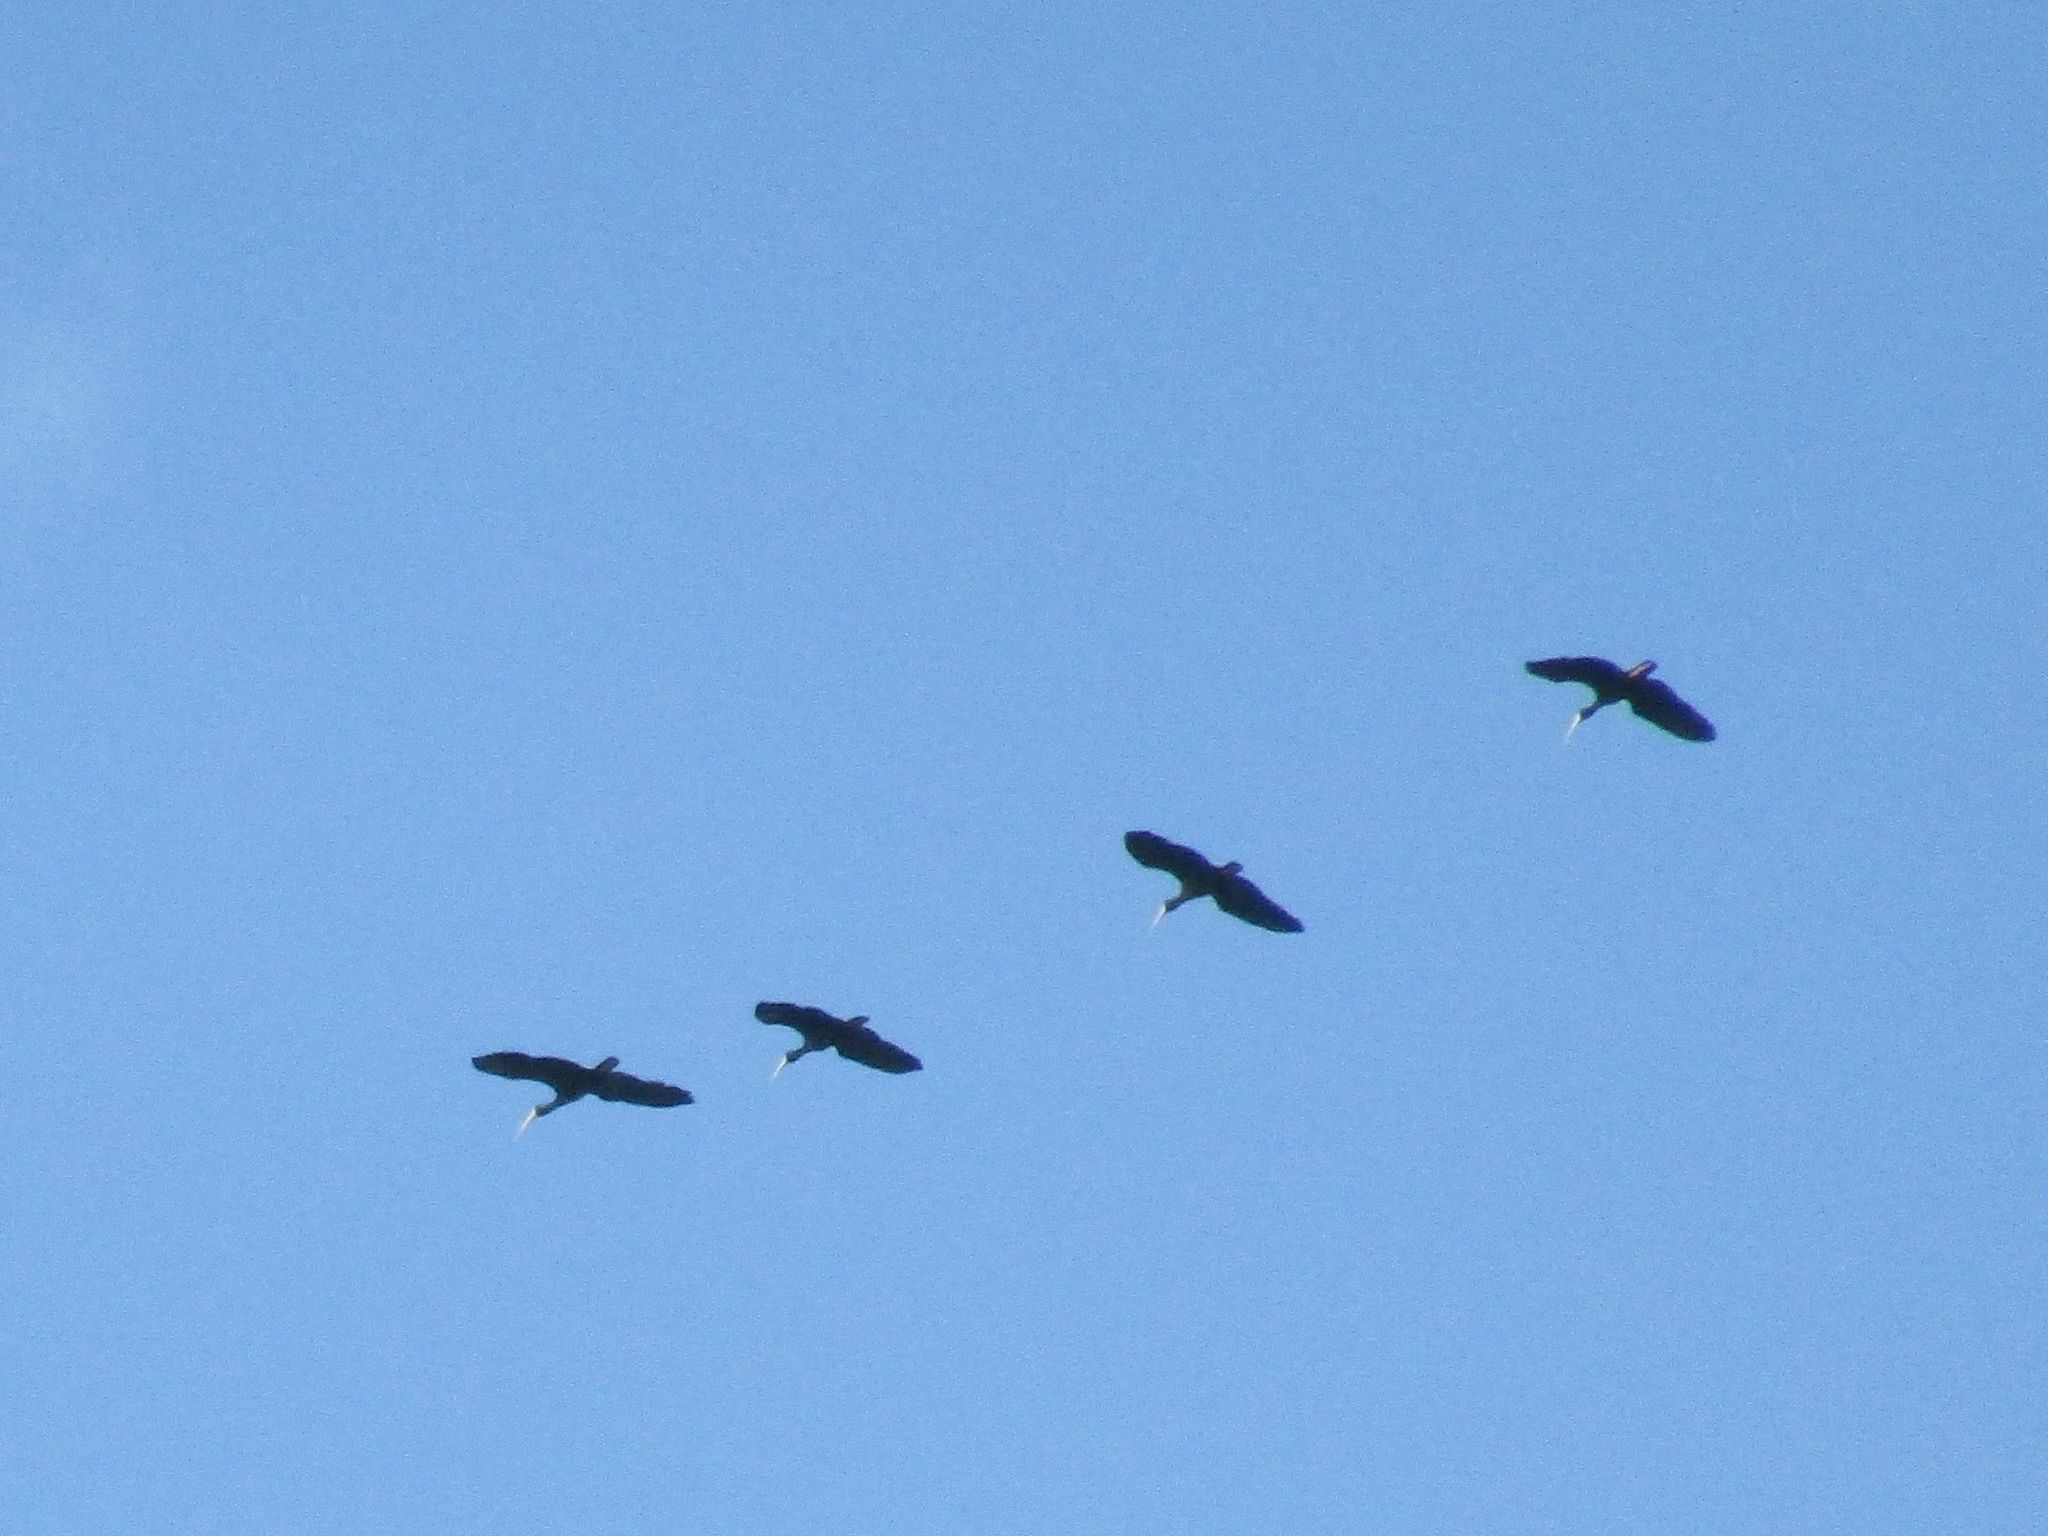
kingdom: Animalia
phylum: Chordata
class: Aves
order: Pelecaniformes
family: Threskiornithidae
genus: Phimosus
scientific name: Phimosus infuscatus
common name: Bare-faced ibis
